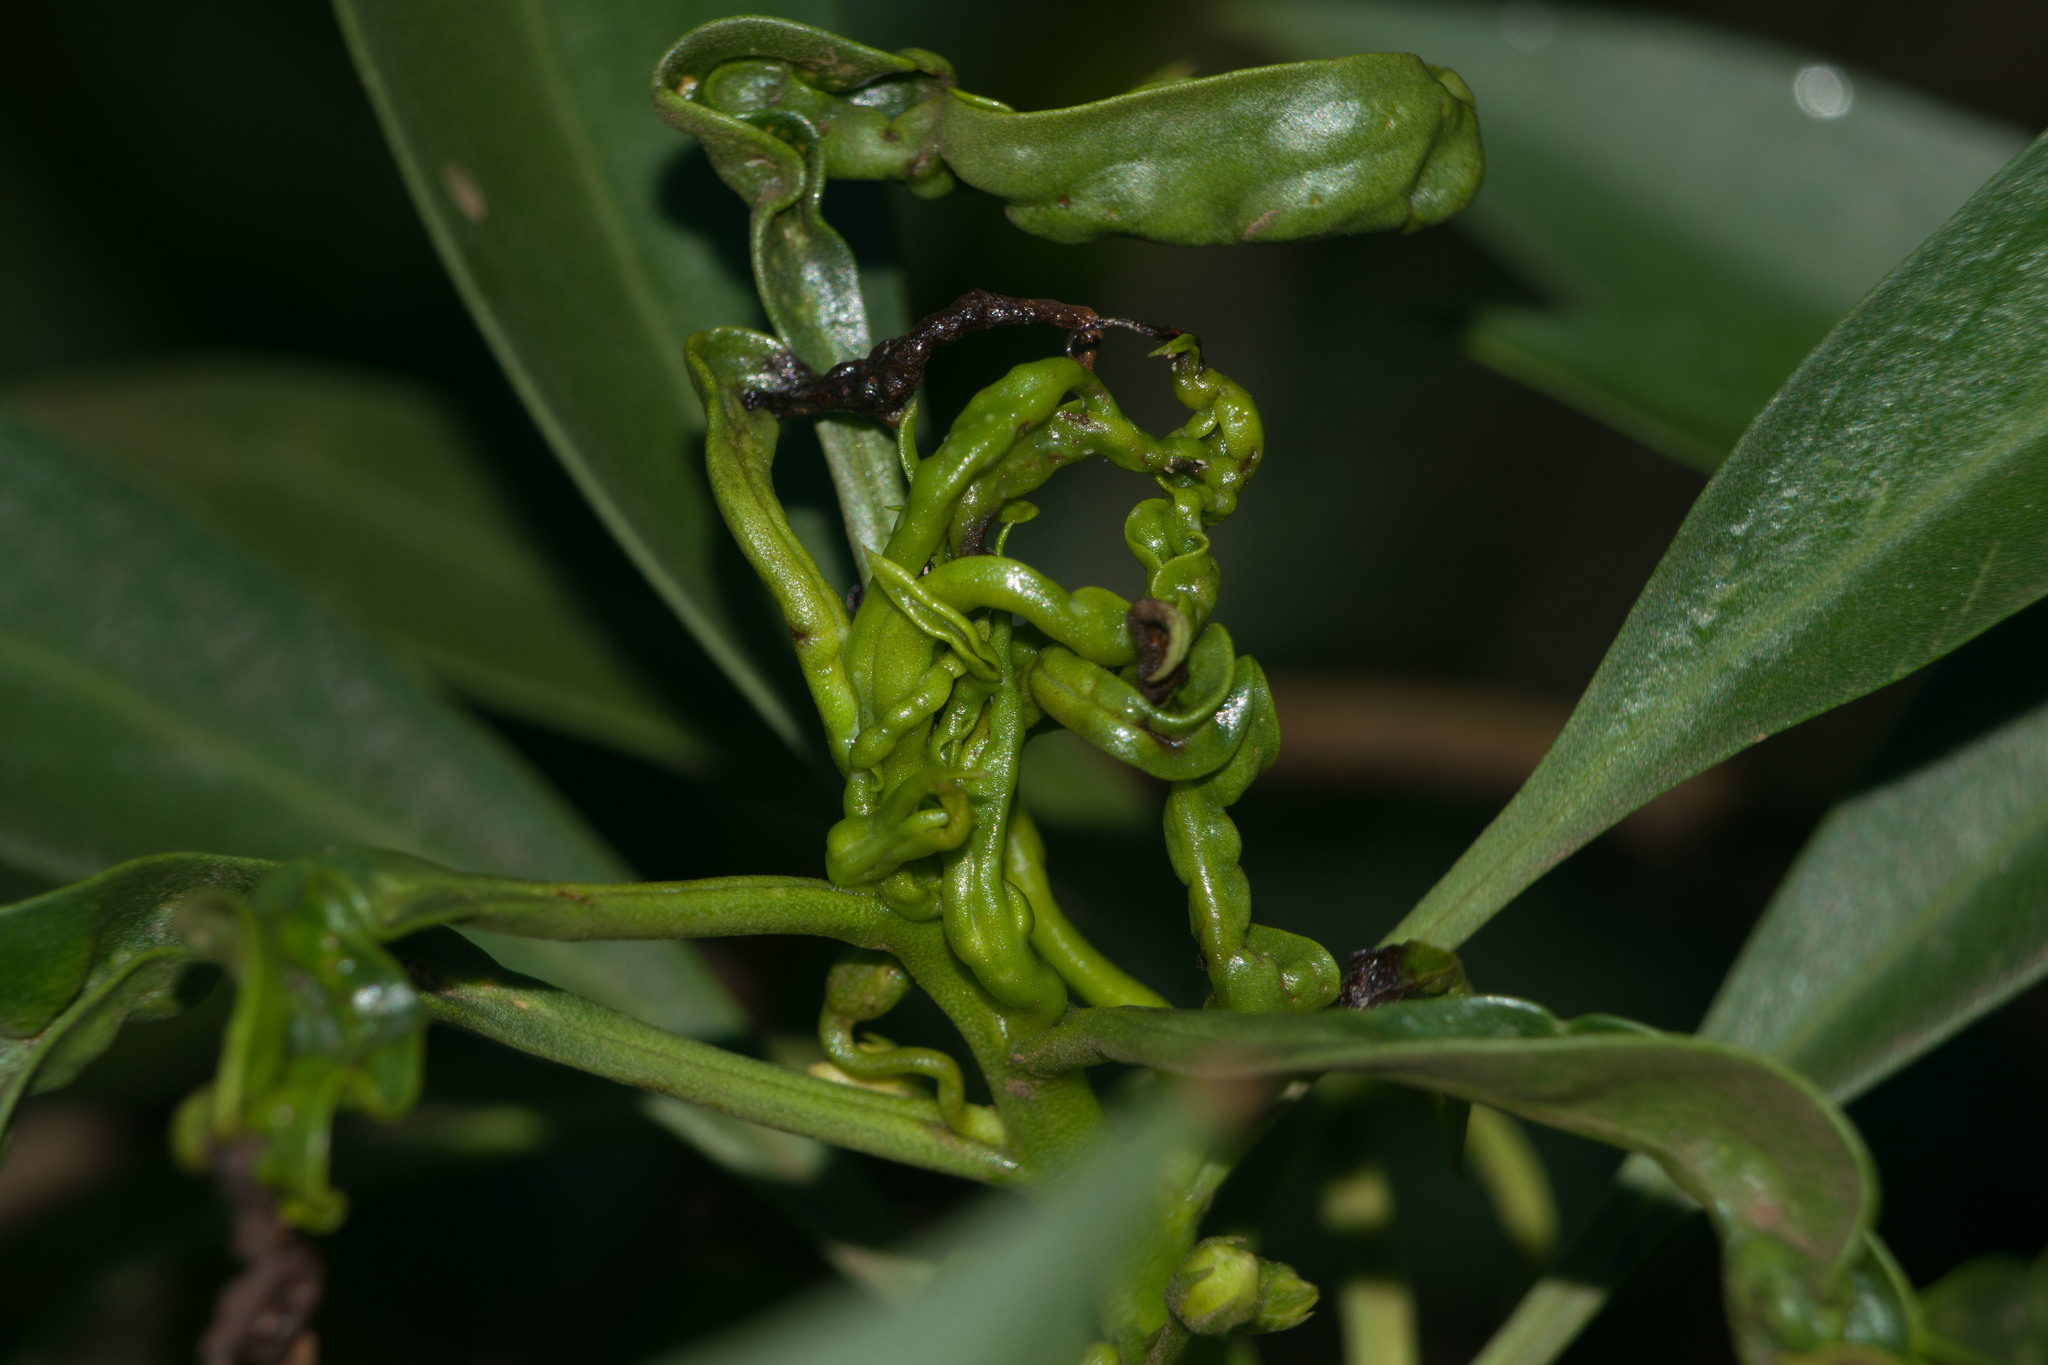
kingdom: Animalia
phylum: Arthropoda
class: Insecta
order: Thysanoptera
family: Phlaeothripidae
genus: Klambothrips
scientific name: Klambothrips myopori
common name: Myoporum thrips
